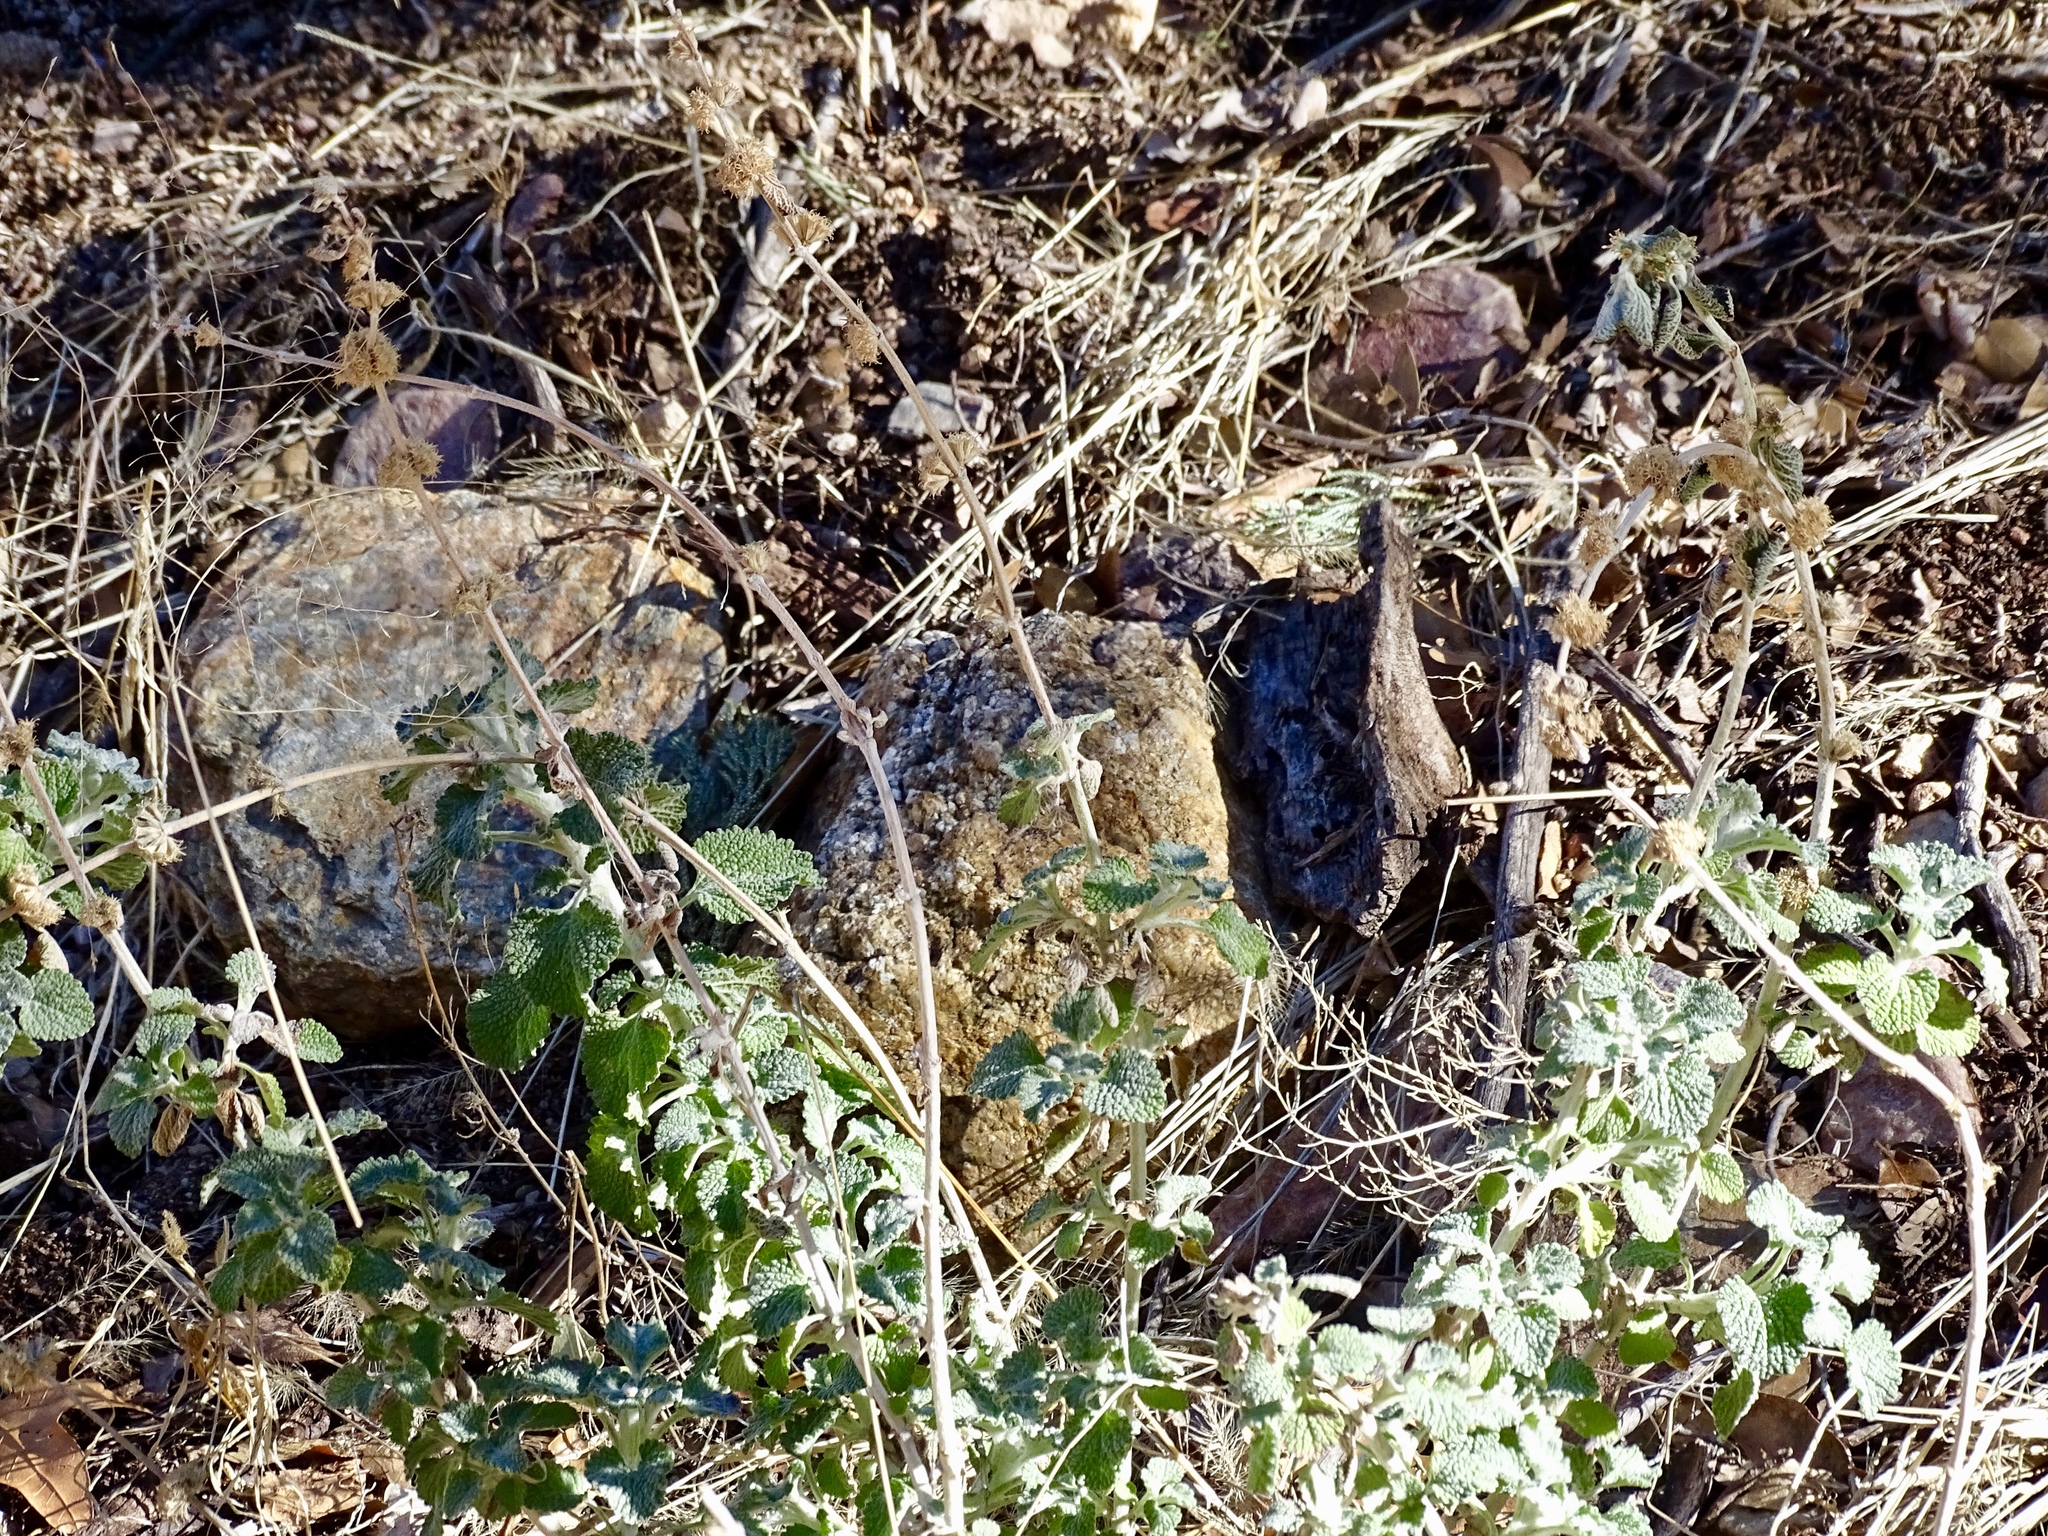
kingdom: Plantae
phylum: Tracheophyta
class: Magnoliopsida
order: Lamiales
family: Lamiaceae
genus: Marrubium
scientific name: Marrubium vulgare
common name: Horehound
